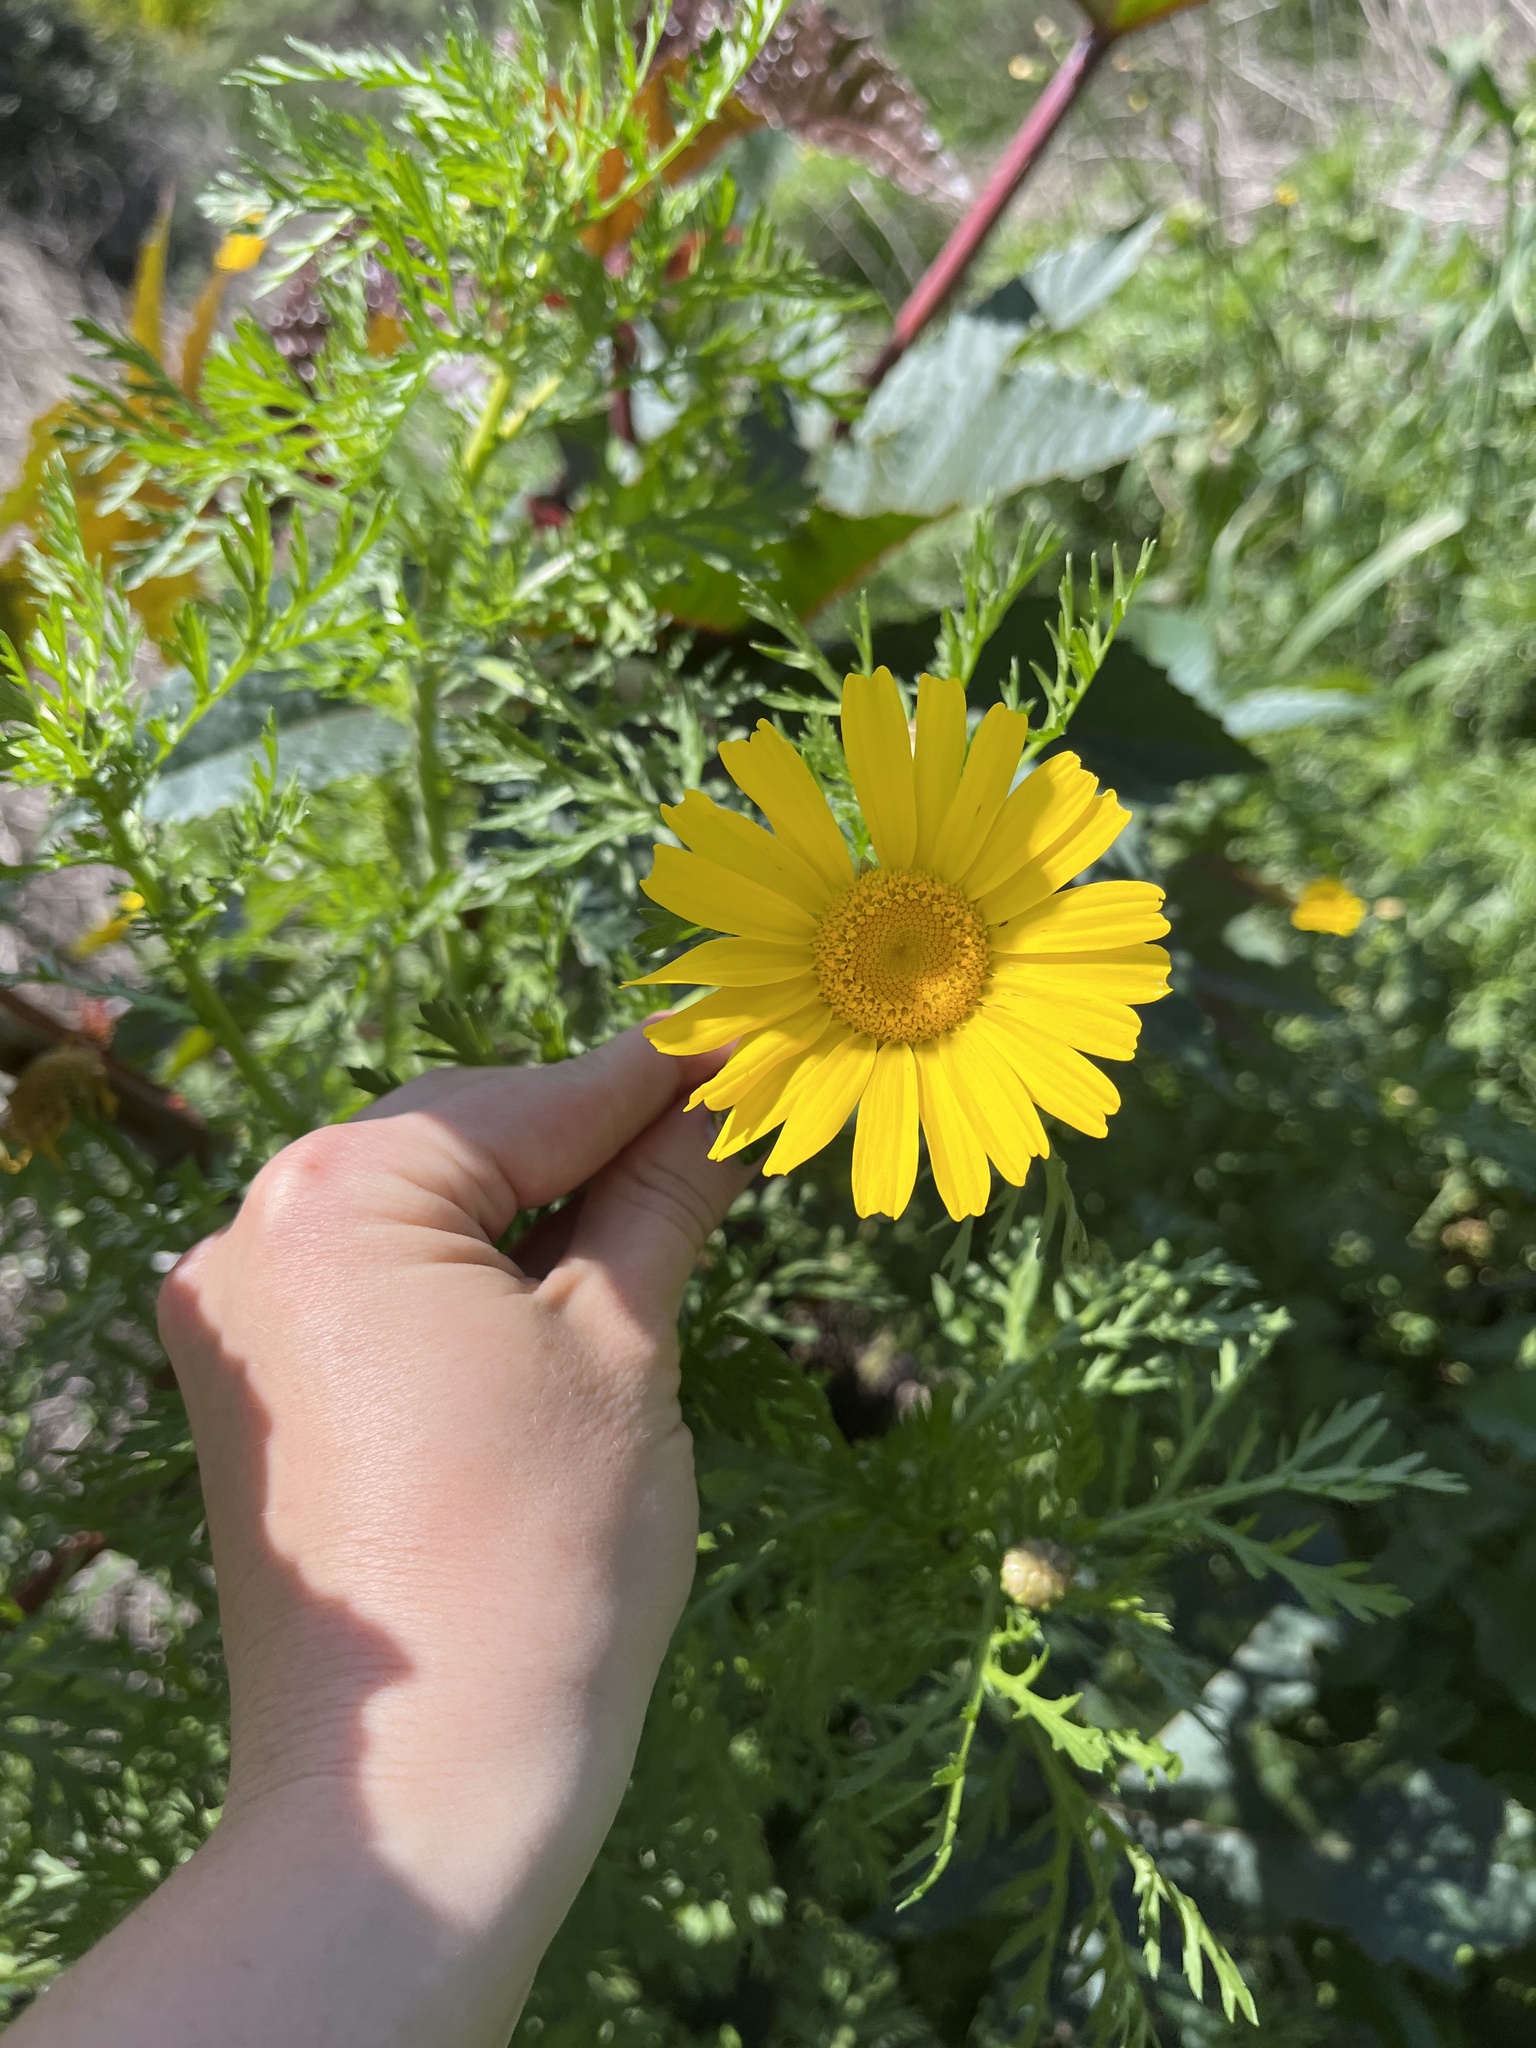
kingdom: Plantae
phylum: Tracheophyta
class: Magnoliopsida
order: Asterales
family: Asteraceae
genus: Glebionis
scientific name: Glebionis coronaria
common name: Crowndaisy
